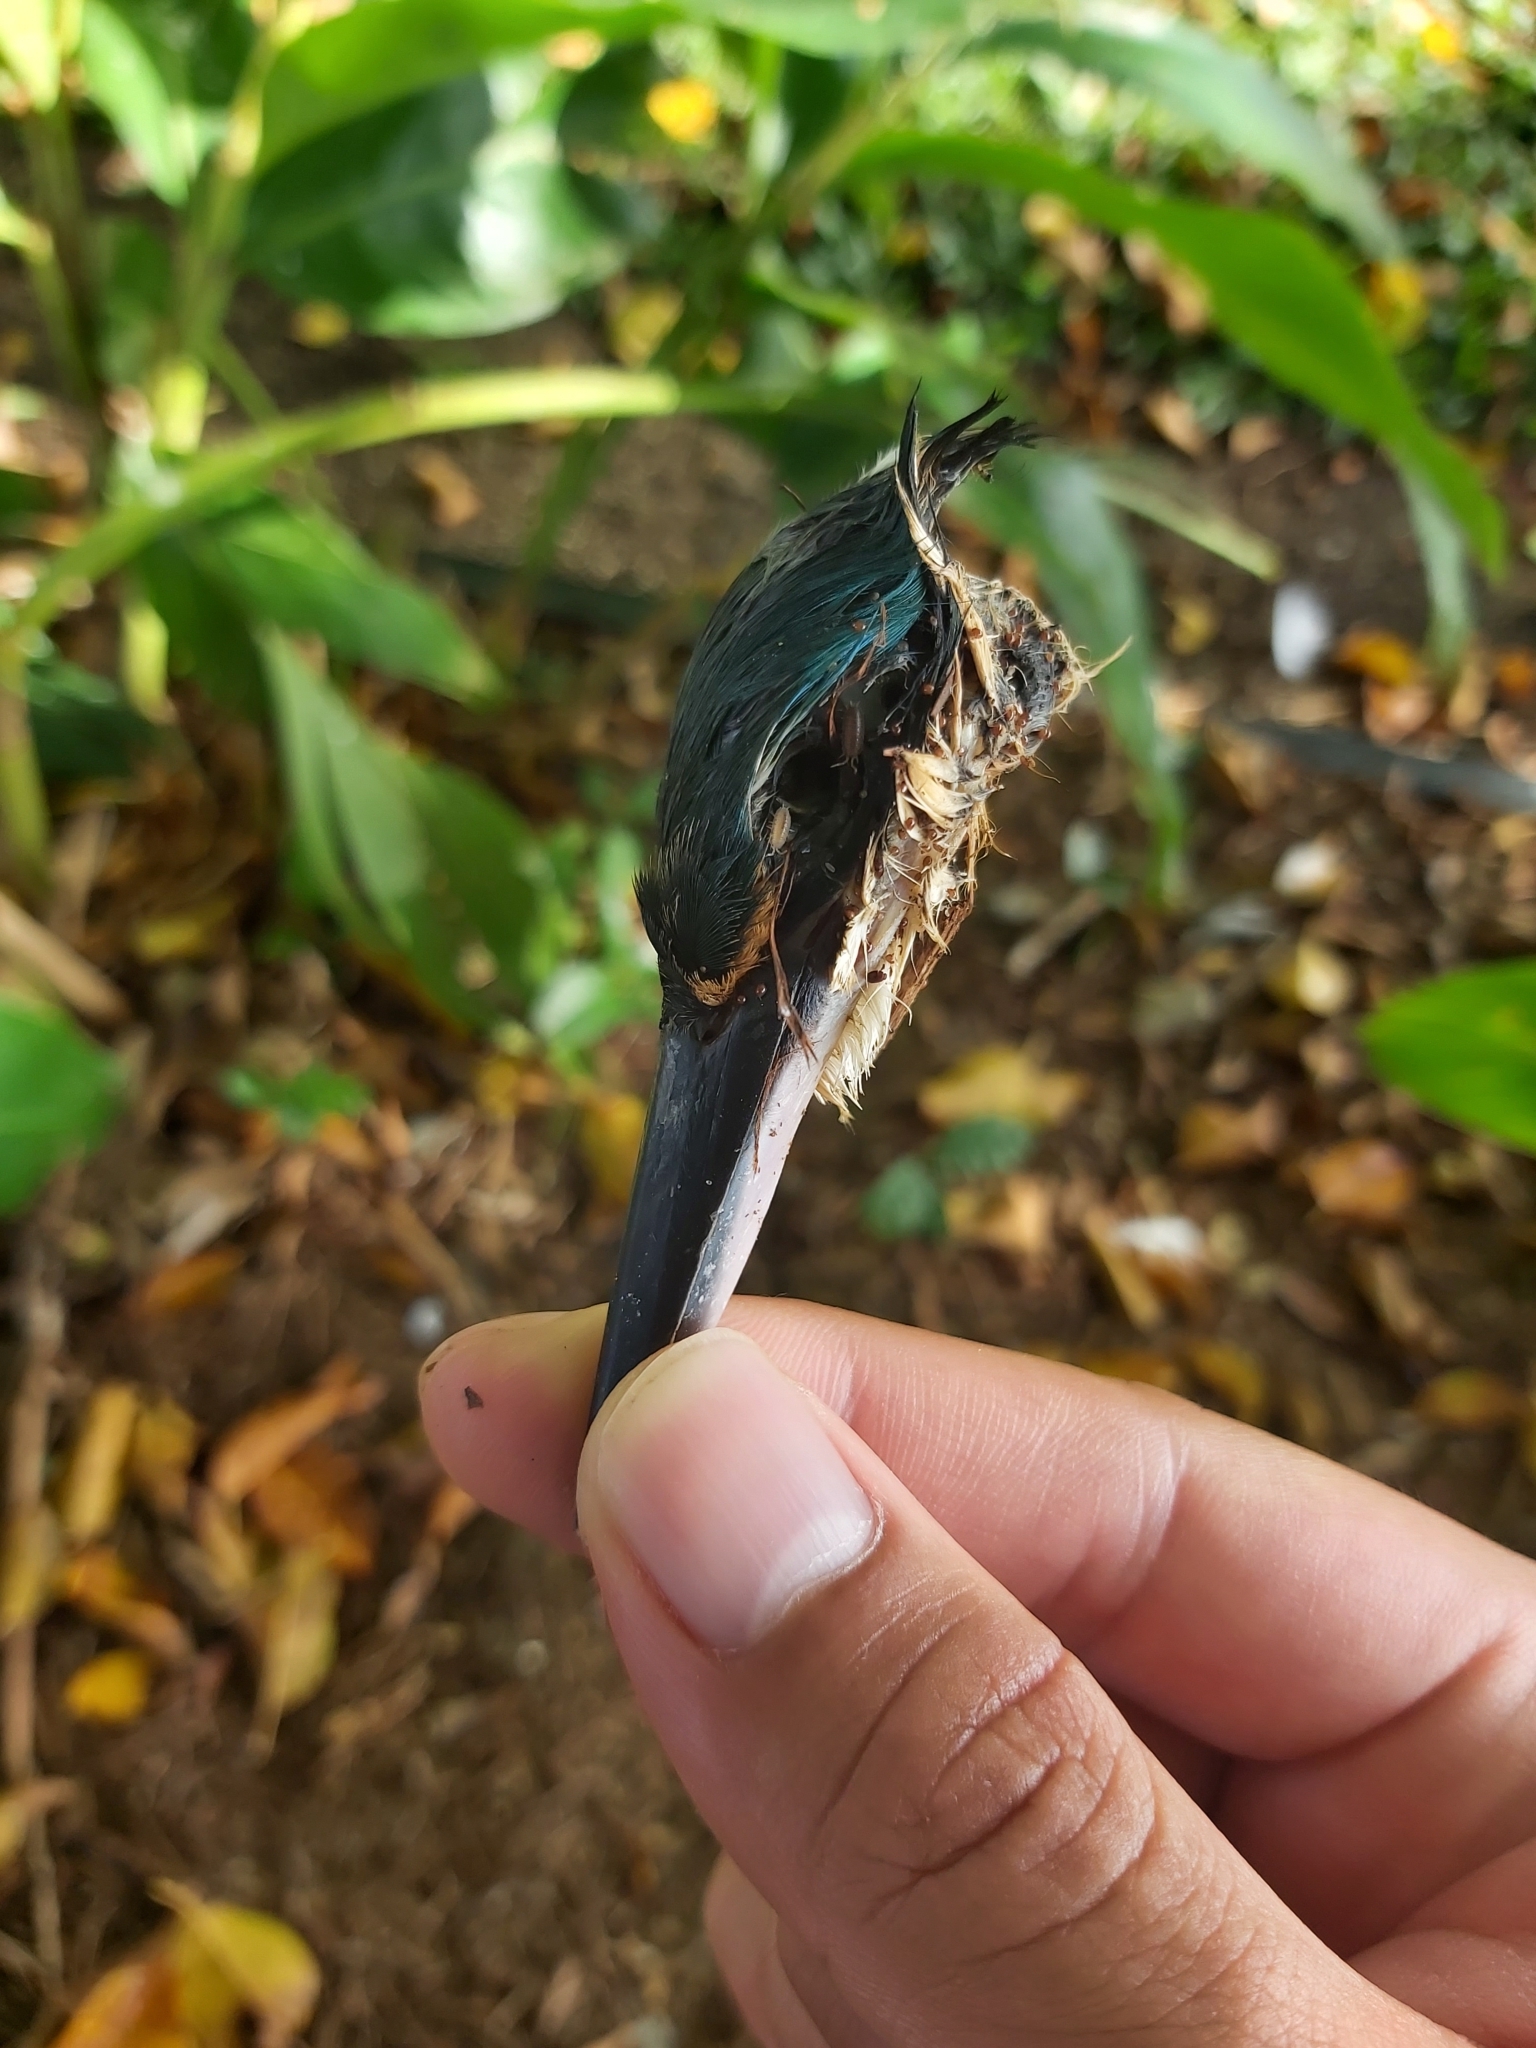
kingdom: Animalia
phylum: Chordata
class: Aves
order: Coraciiformes
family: Alcedinidae
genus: Todiramphus
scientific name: Todiramphus sanctus
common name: Sacred kingfisher
